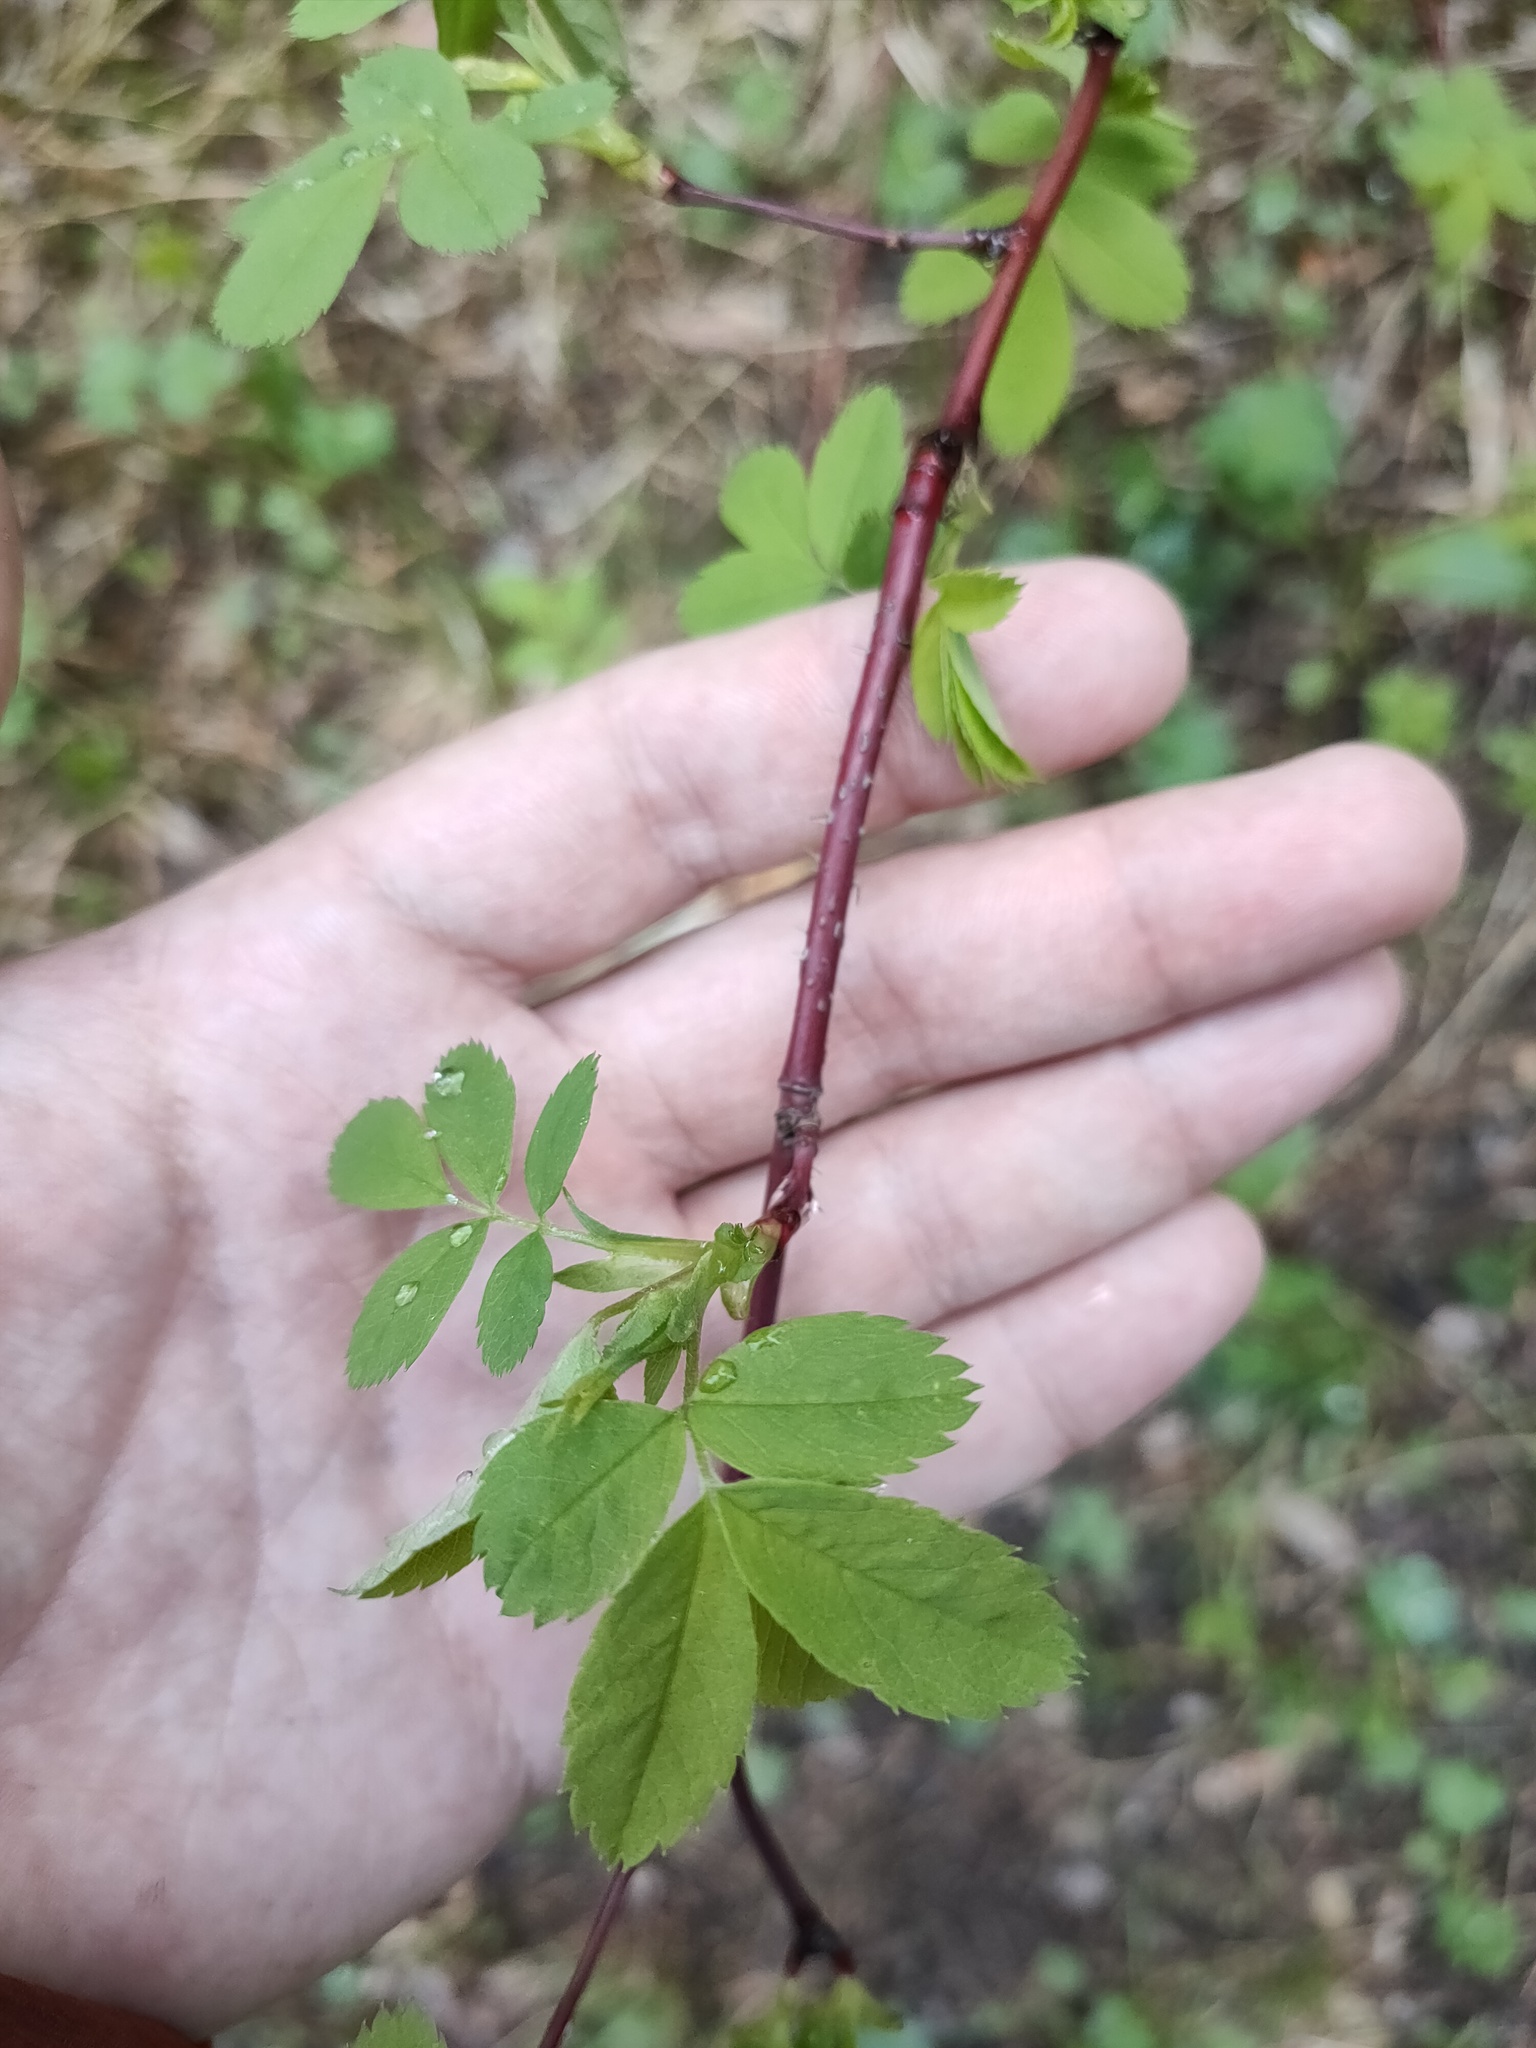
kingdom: Plantae
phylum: Tracheophyta
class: Magnoliopsida
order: Rosales
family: Rosaceae
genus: Rosa
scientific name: Rosa
